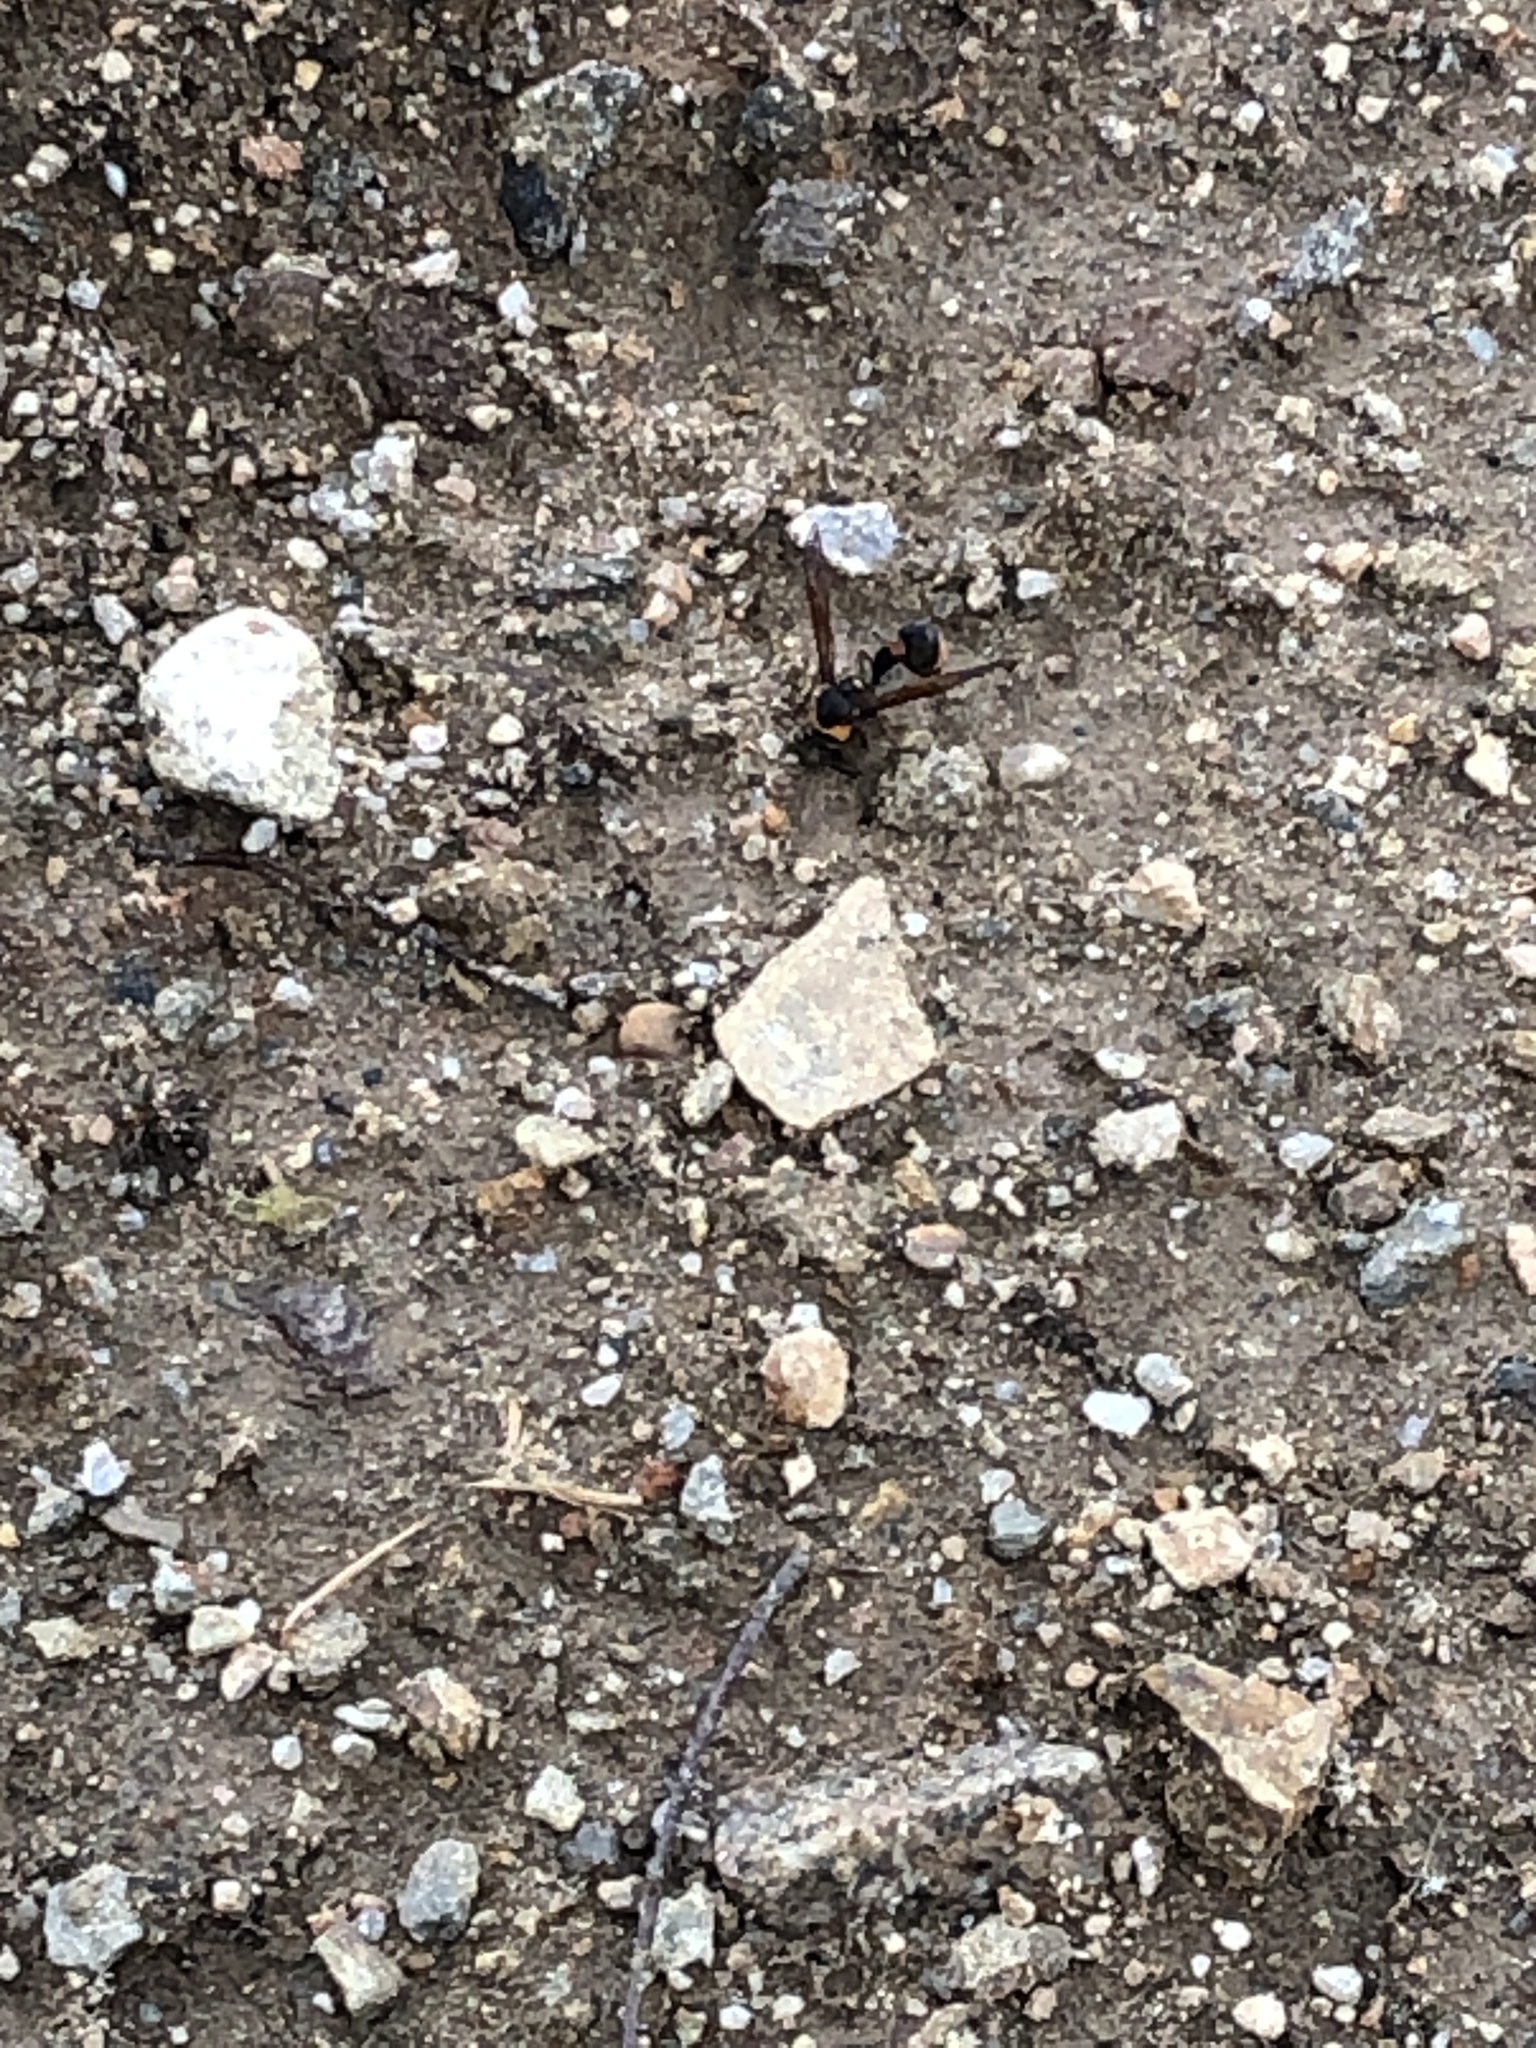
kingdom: Animalia
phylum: Arthropoda
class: Insecta
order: Hymenoptera
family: Eumenidae
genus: Oreumenes
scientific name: Oreumenes decoratus
